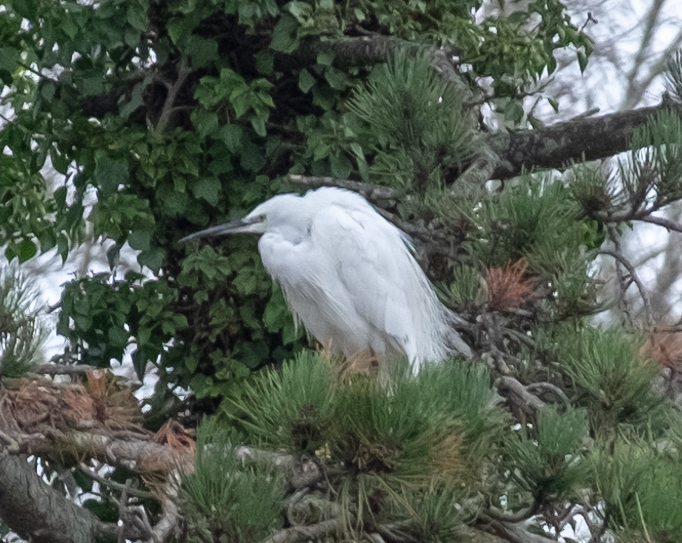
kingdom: Animalia
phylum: Chordata
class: Aves
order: Pelecaniformes
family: Ardeidae
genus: Egretta
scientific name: Egretta garzetta
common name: Little egret
